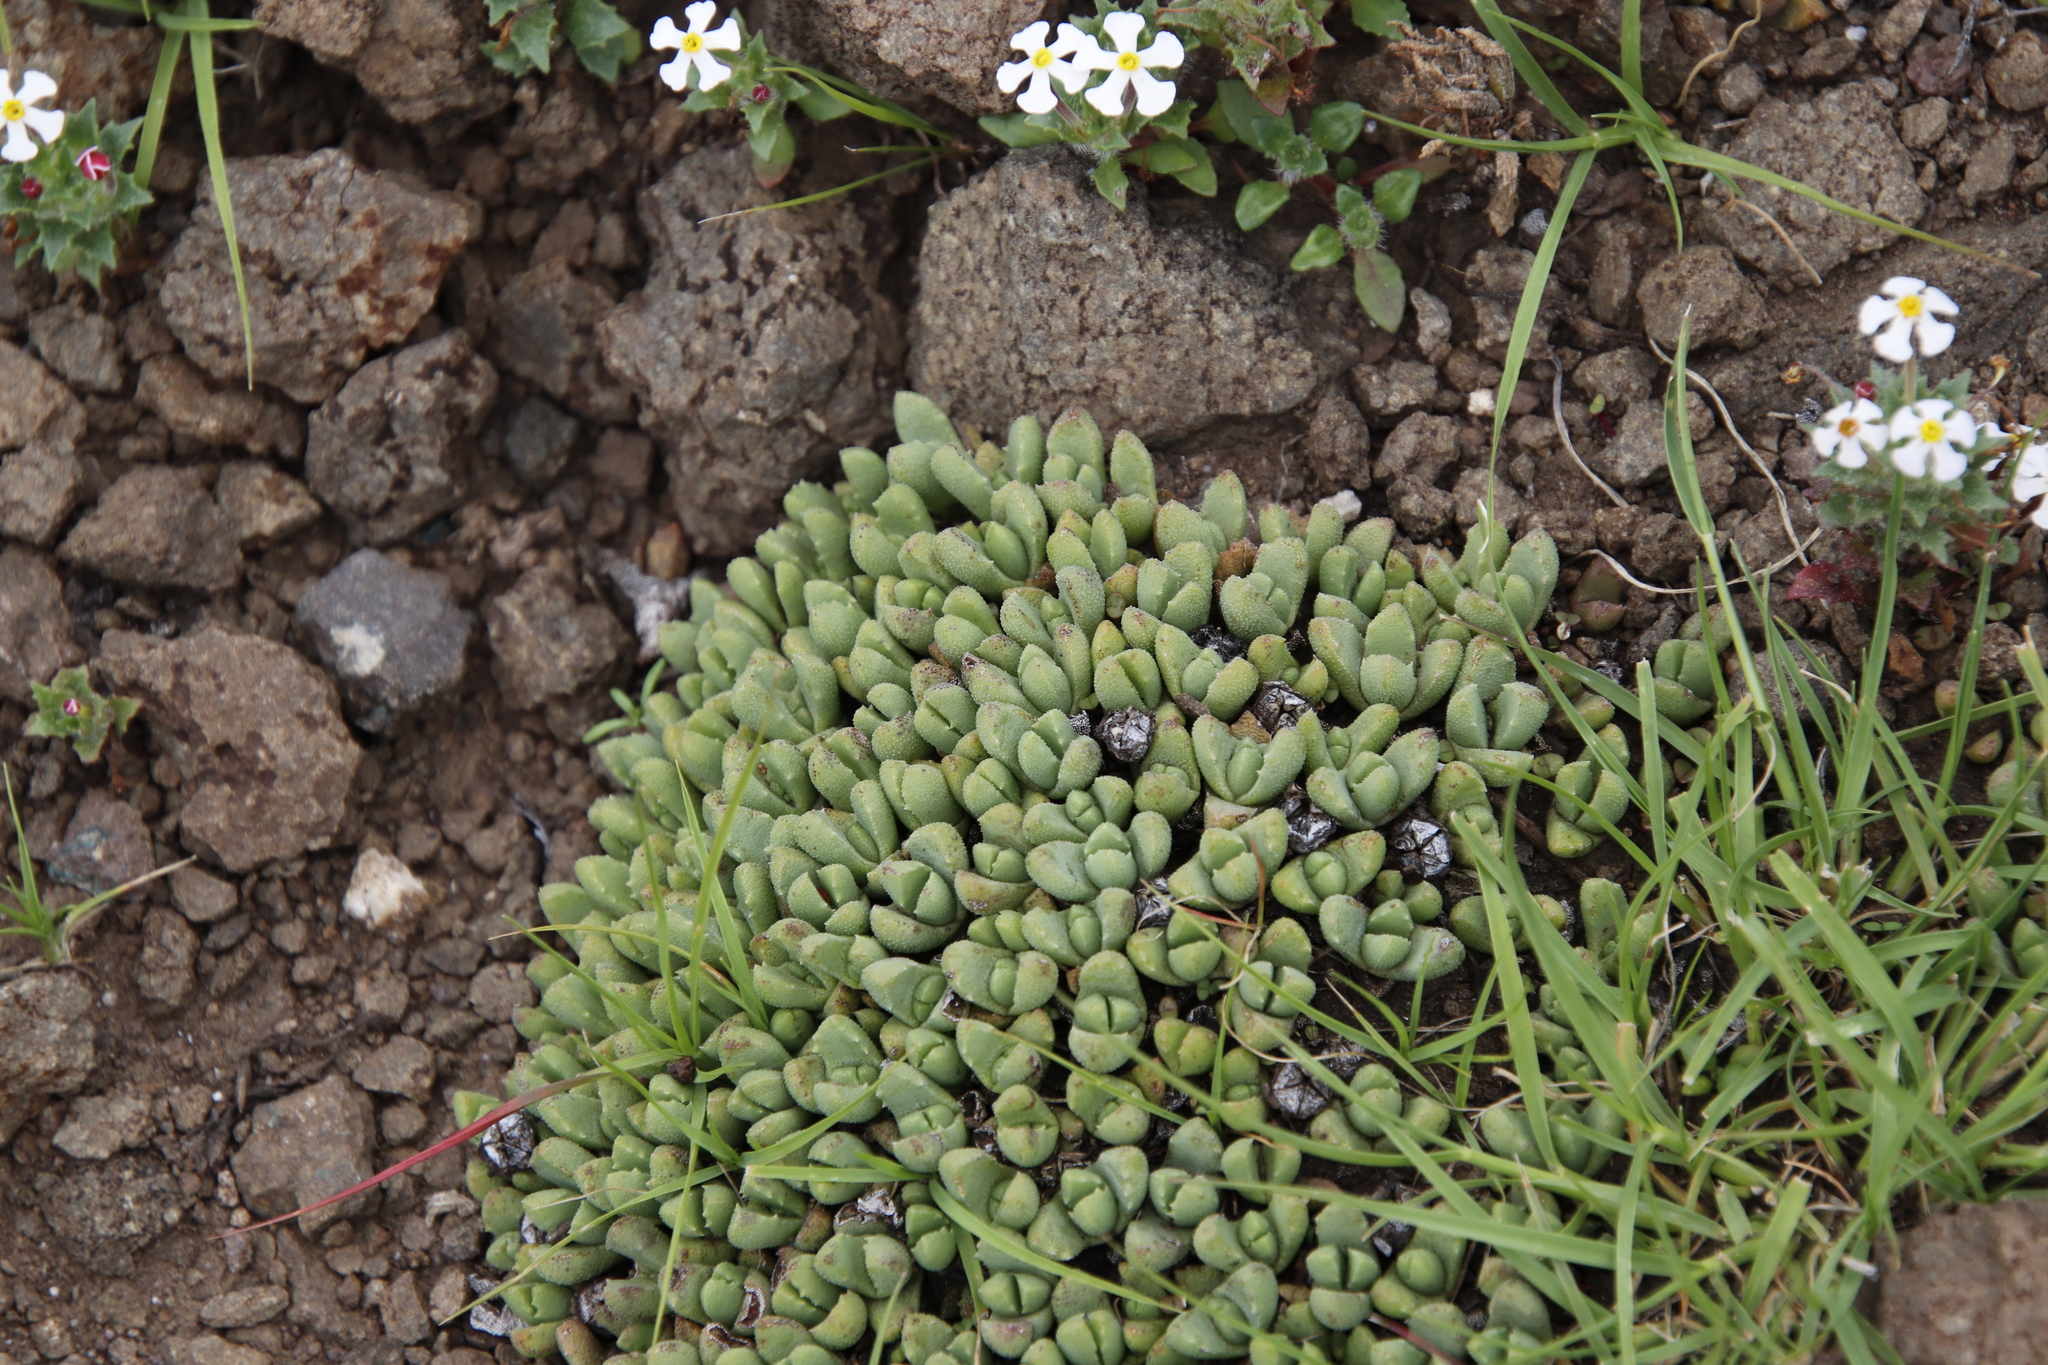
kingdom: Plantae
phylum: Tracheophyta
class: Magnoliopsida
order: Caryophyllales
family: Aizoaceae
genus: Stomatium
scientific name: Stomatium gerstneri
